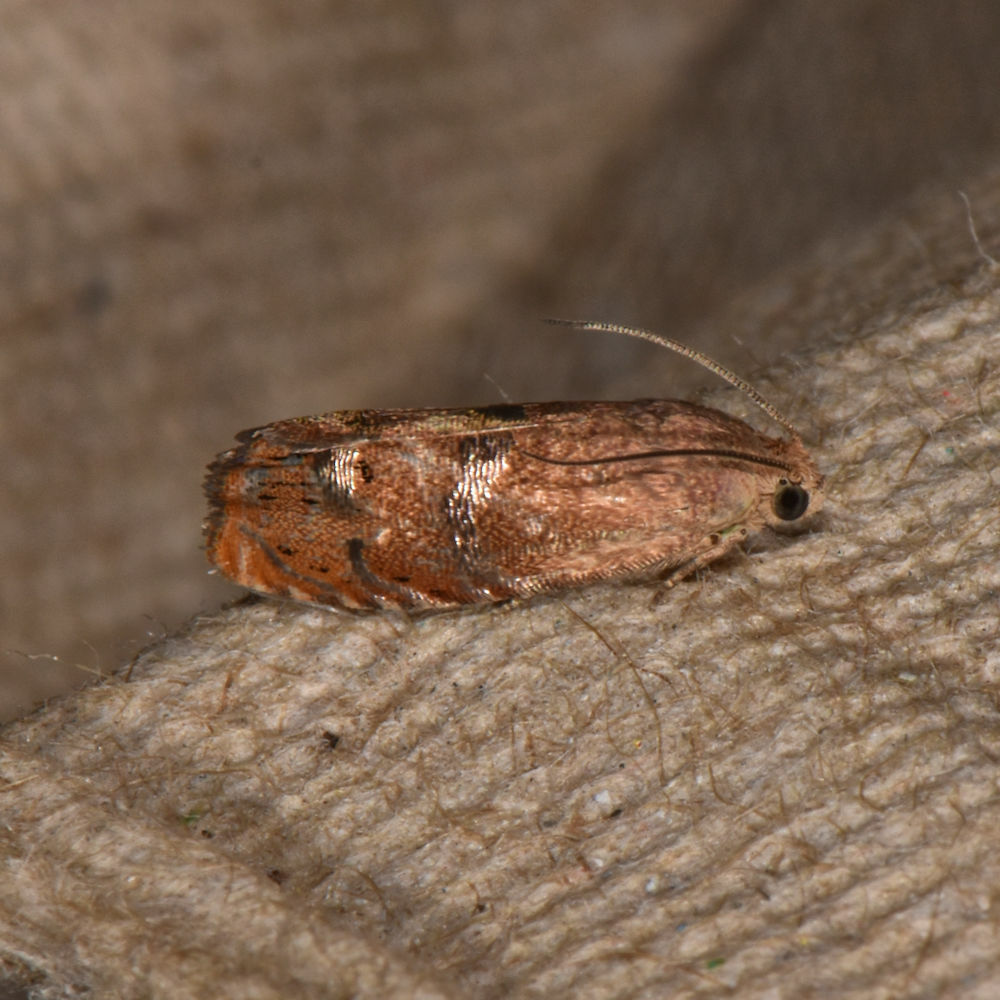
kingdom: Animalia
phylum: Arthropoda
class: Insecta
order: Lepidoptera
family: Tortricidae
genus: Cydia
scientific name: Cydia latiferreana
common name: Filbertworm moth
